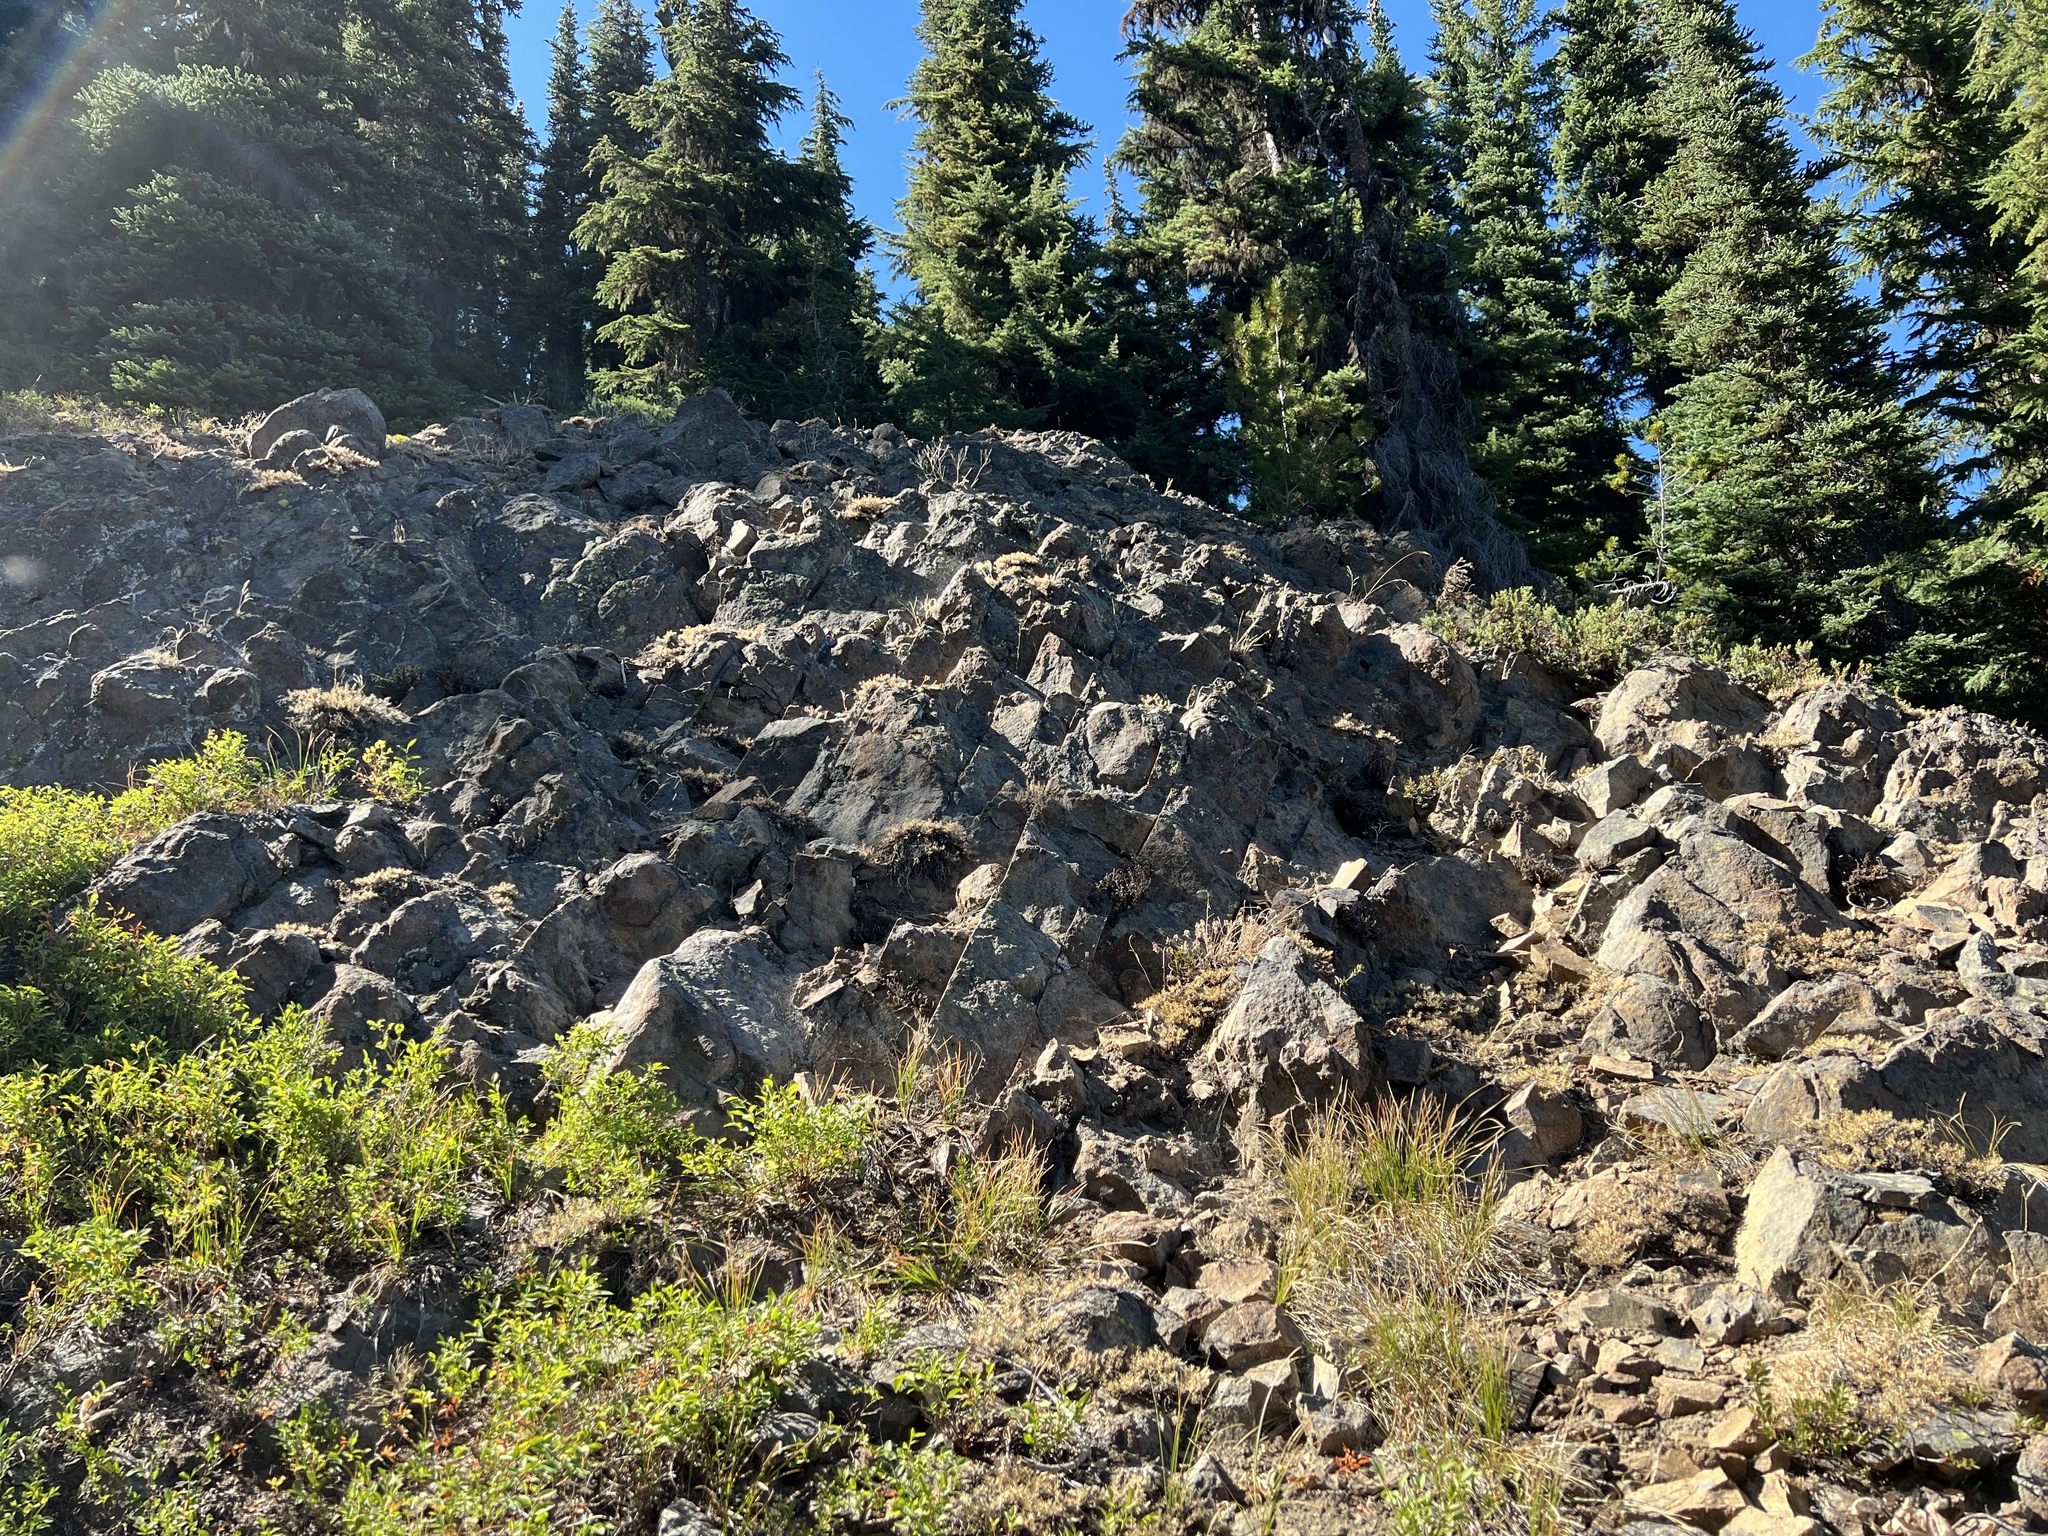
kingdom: Plantae
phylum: Tracheophyta
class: Polypodiopsida
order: Polypodiales
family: Pteridaceae
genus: Myriopteris
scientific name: Myriopteris gracillima
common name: Lace fern
